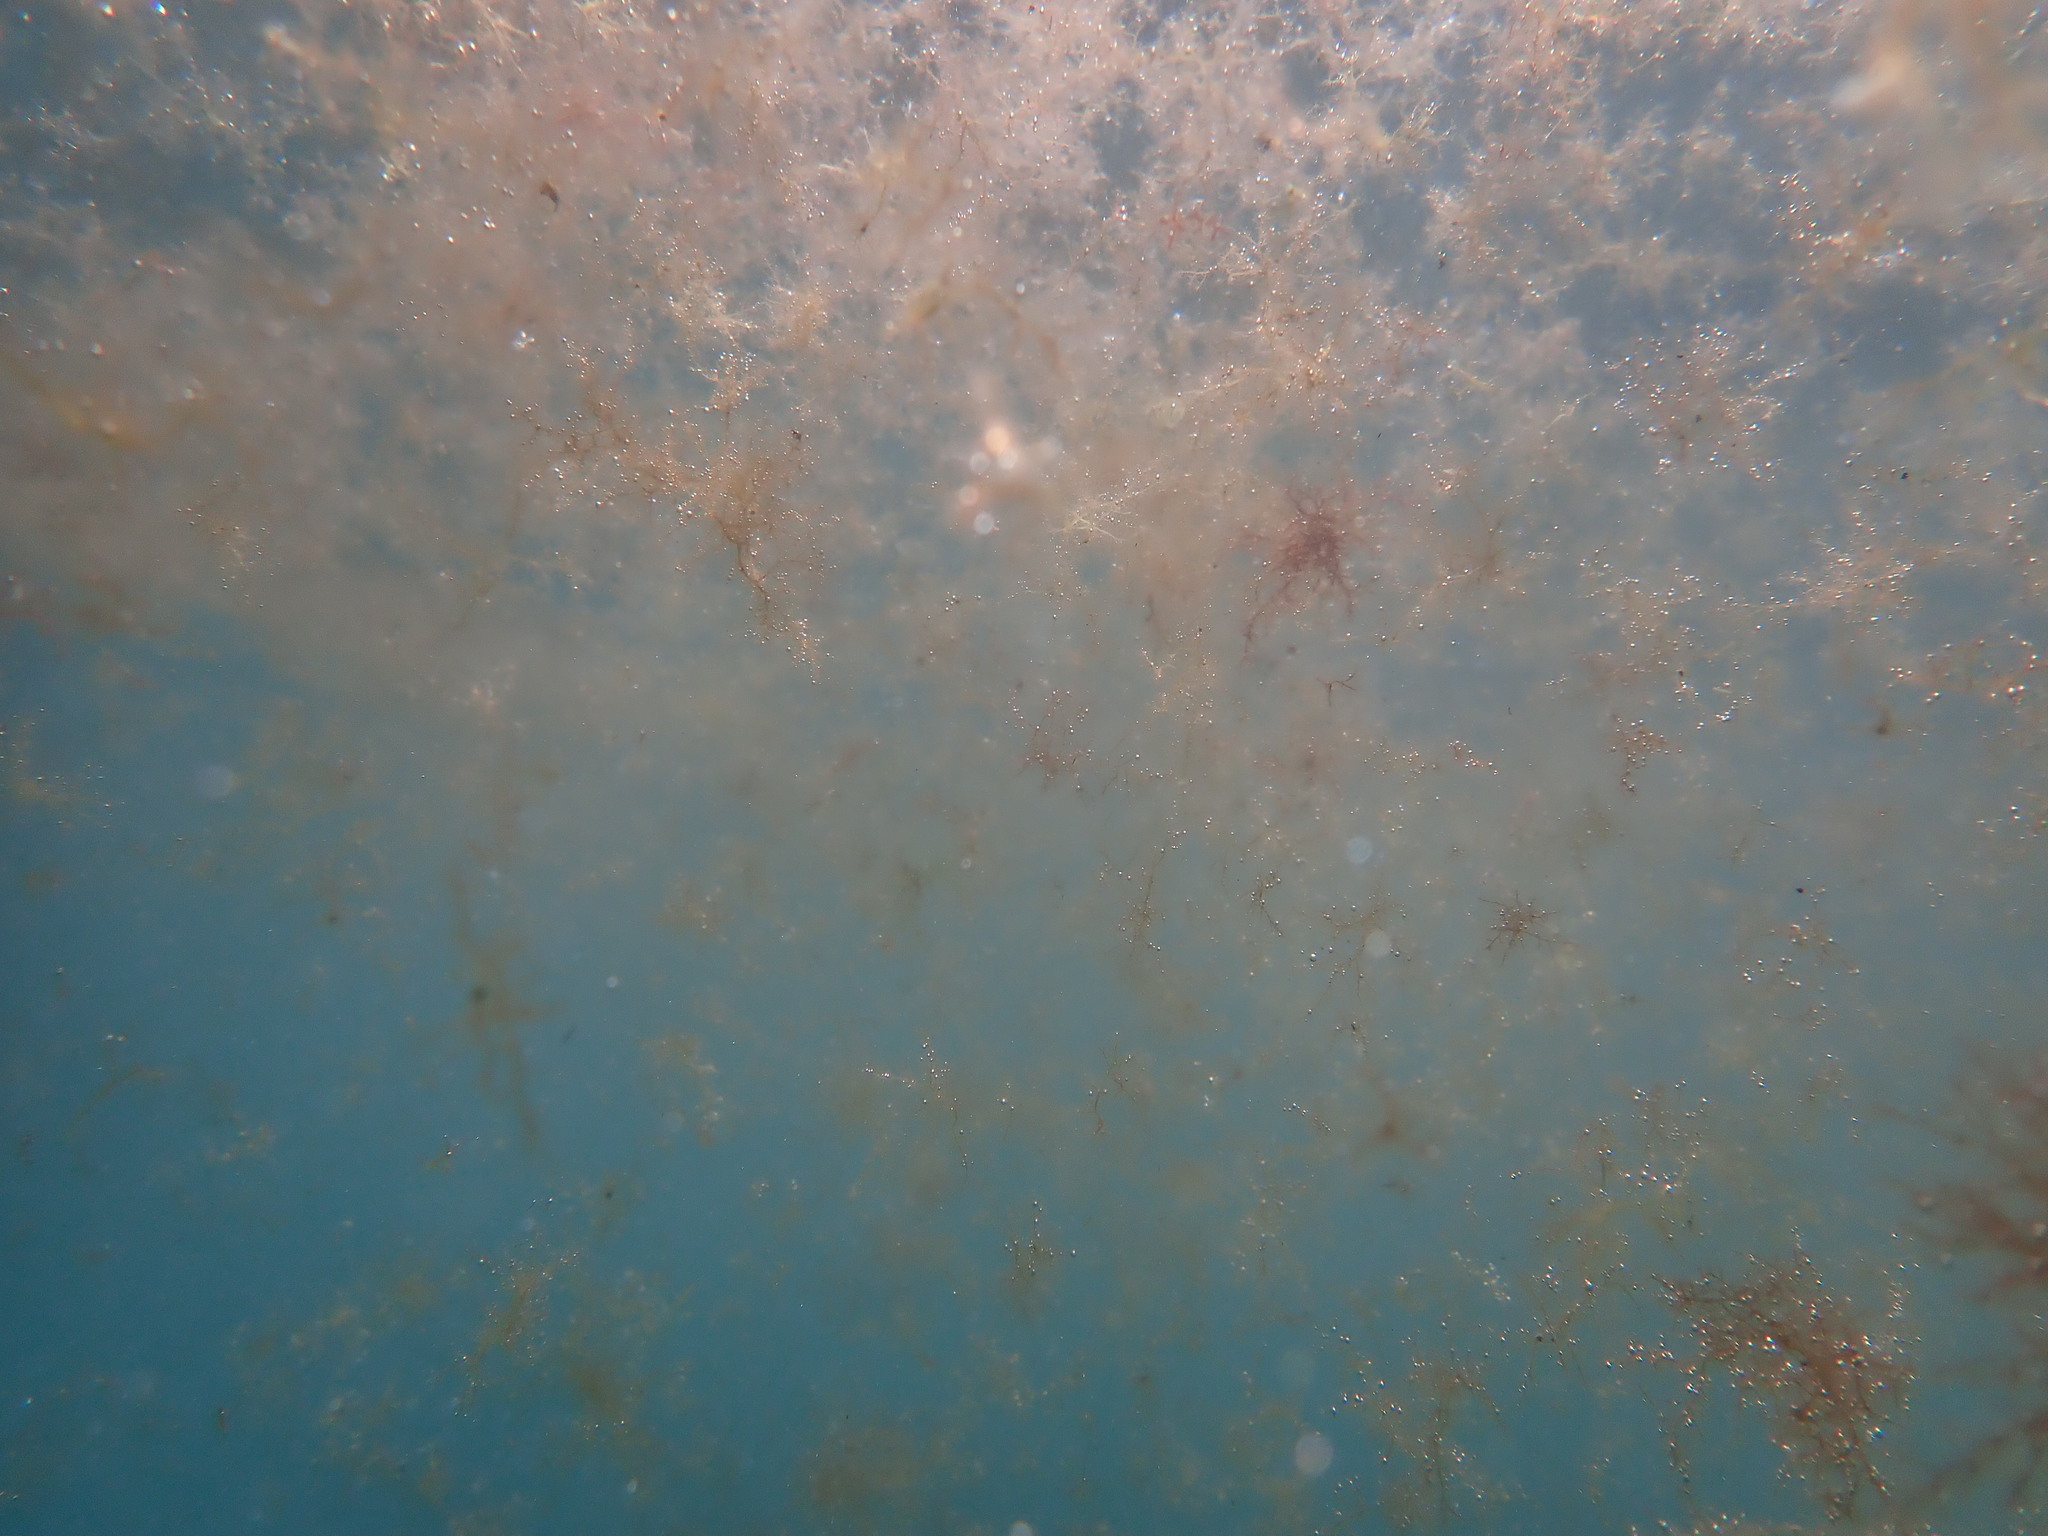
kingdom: Plantae
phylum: Rhodophyta
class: Florideophyceae
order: Ceramiales
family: Spyridiaceae
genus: Spyridia
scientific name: Spyridia filamentosa
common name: Red algae
